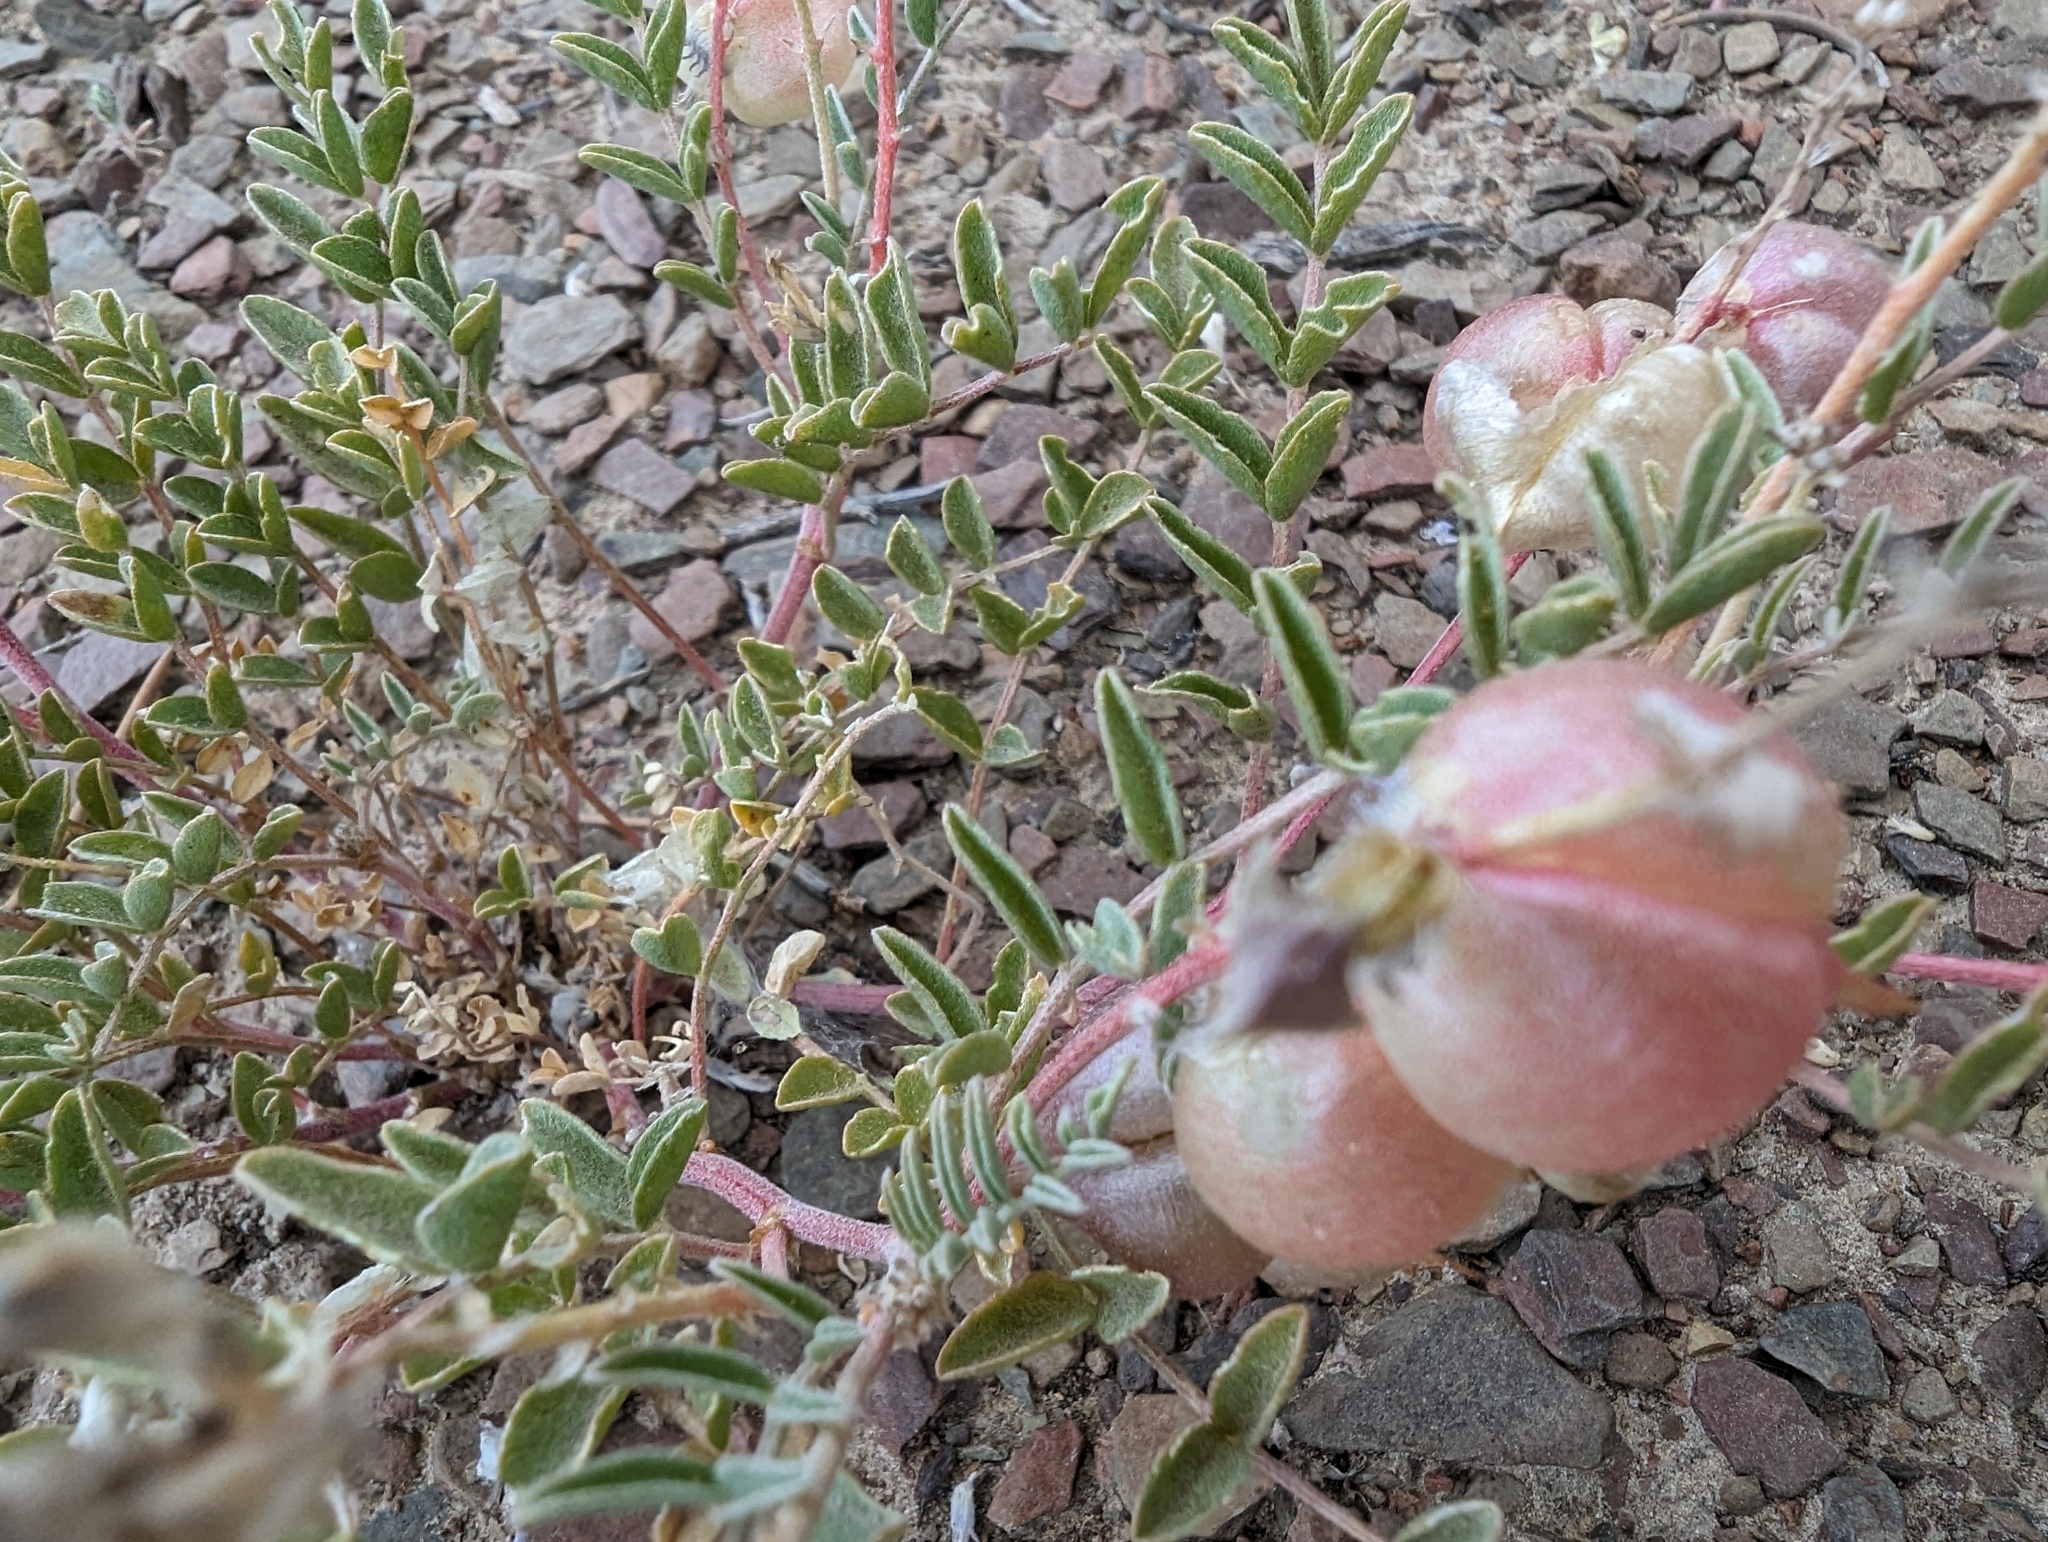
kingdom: Plantae
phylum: Tracheophyta
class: Magnoliopsida
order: Fabales
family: Fabaceae
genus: Astragalus
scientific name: Astragalus lentiginosus
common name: Freckled milkvetch
